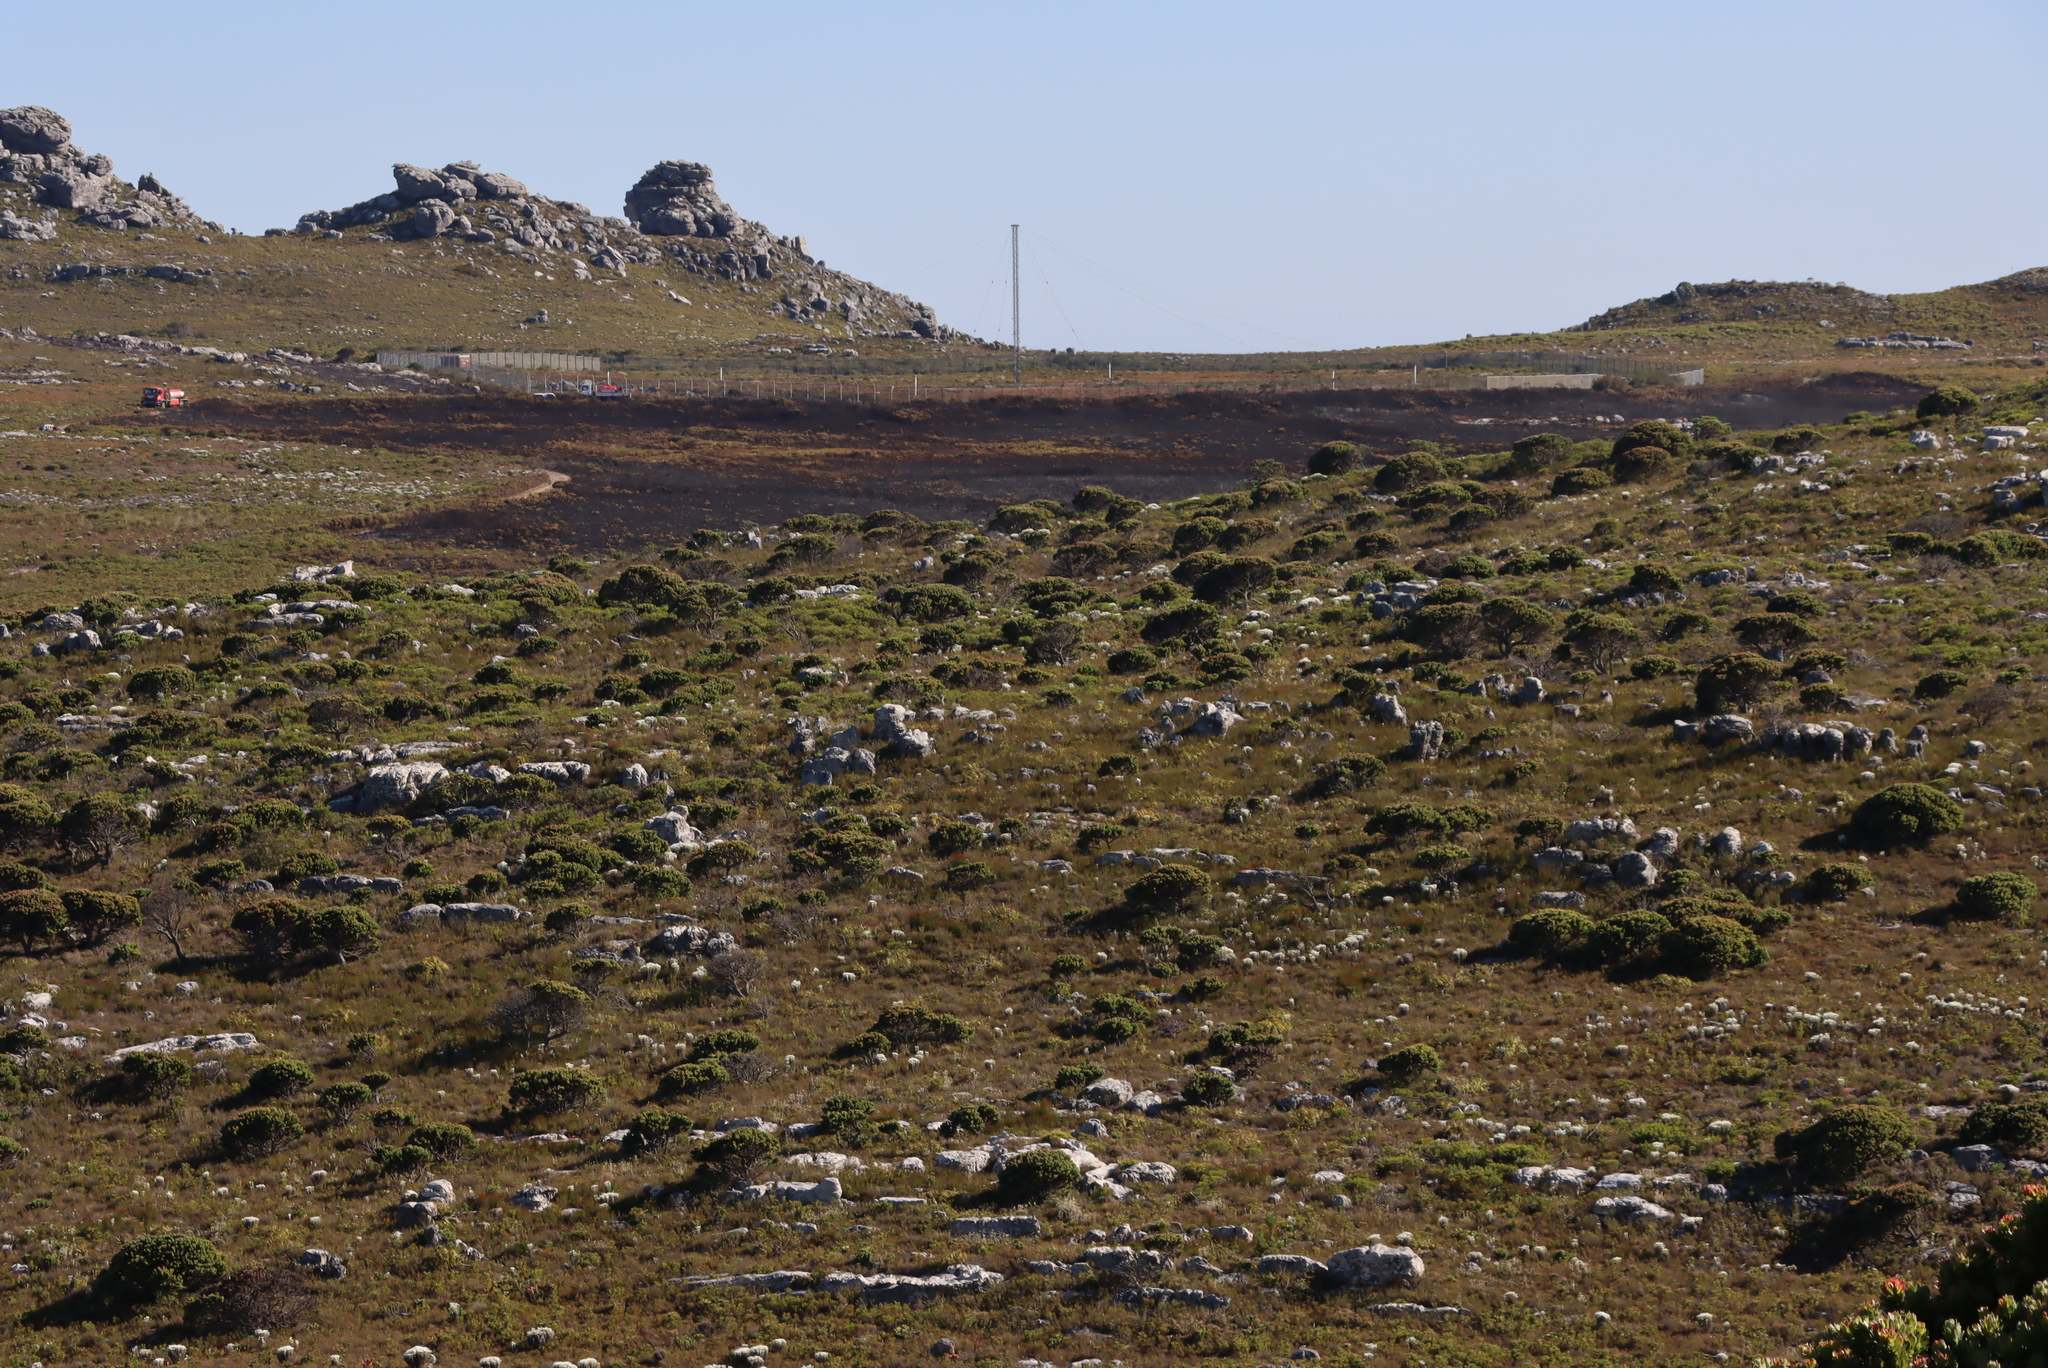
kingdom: Plantae
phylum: Tracheophyta
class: Magnoliopsida
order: Proteales
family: Proteaceae
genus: Mimetes
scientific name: Mimetes fimbriifolius
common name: Fringed bottlebrush
